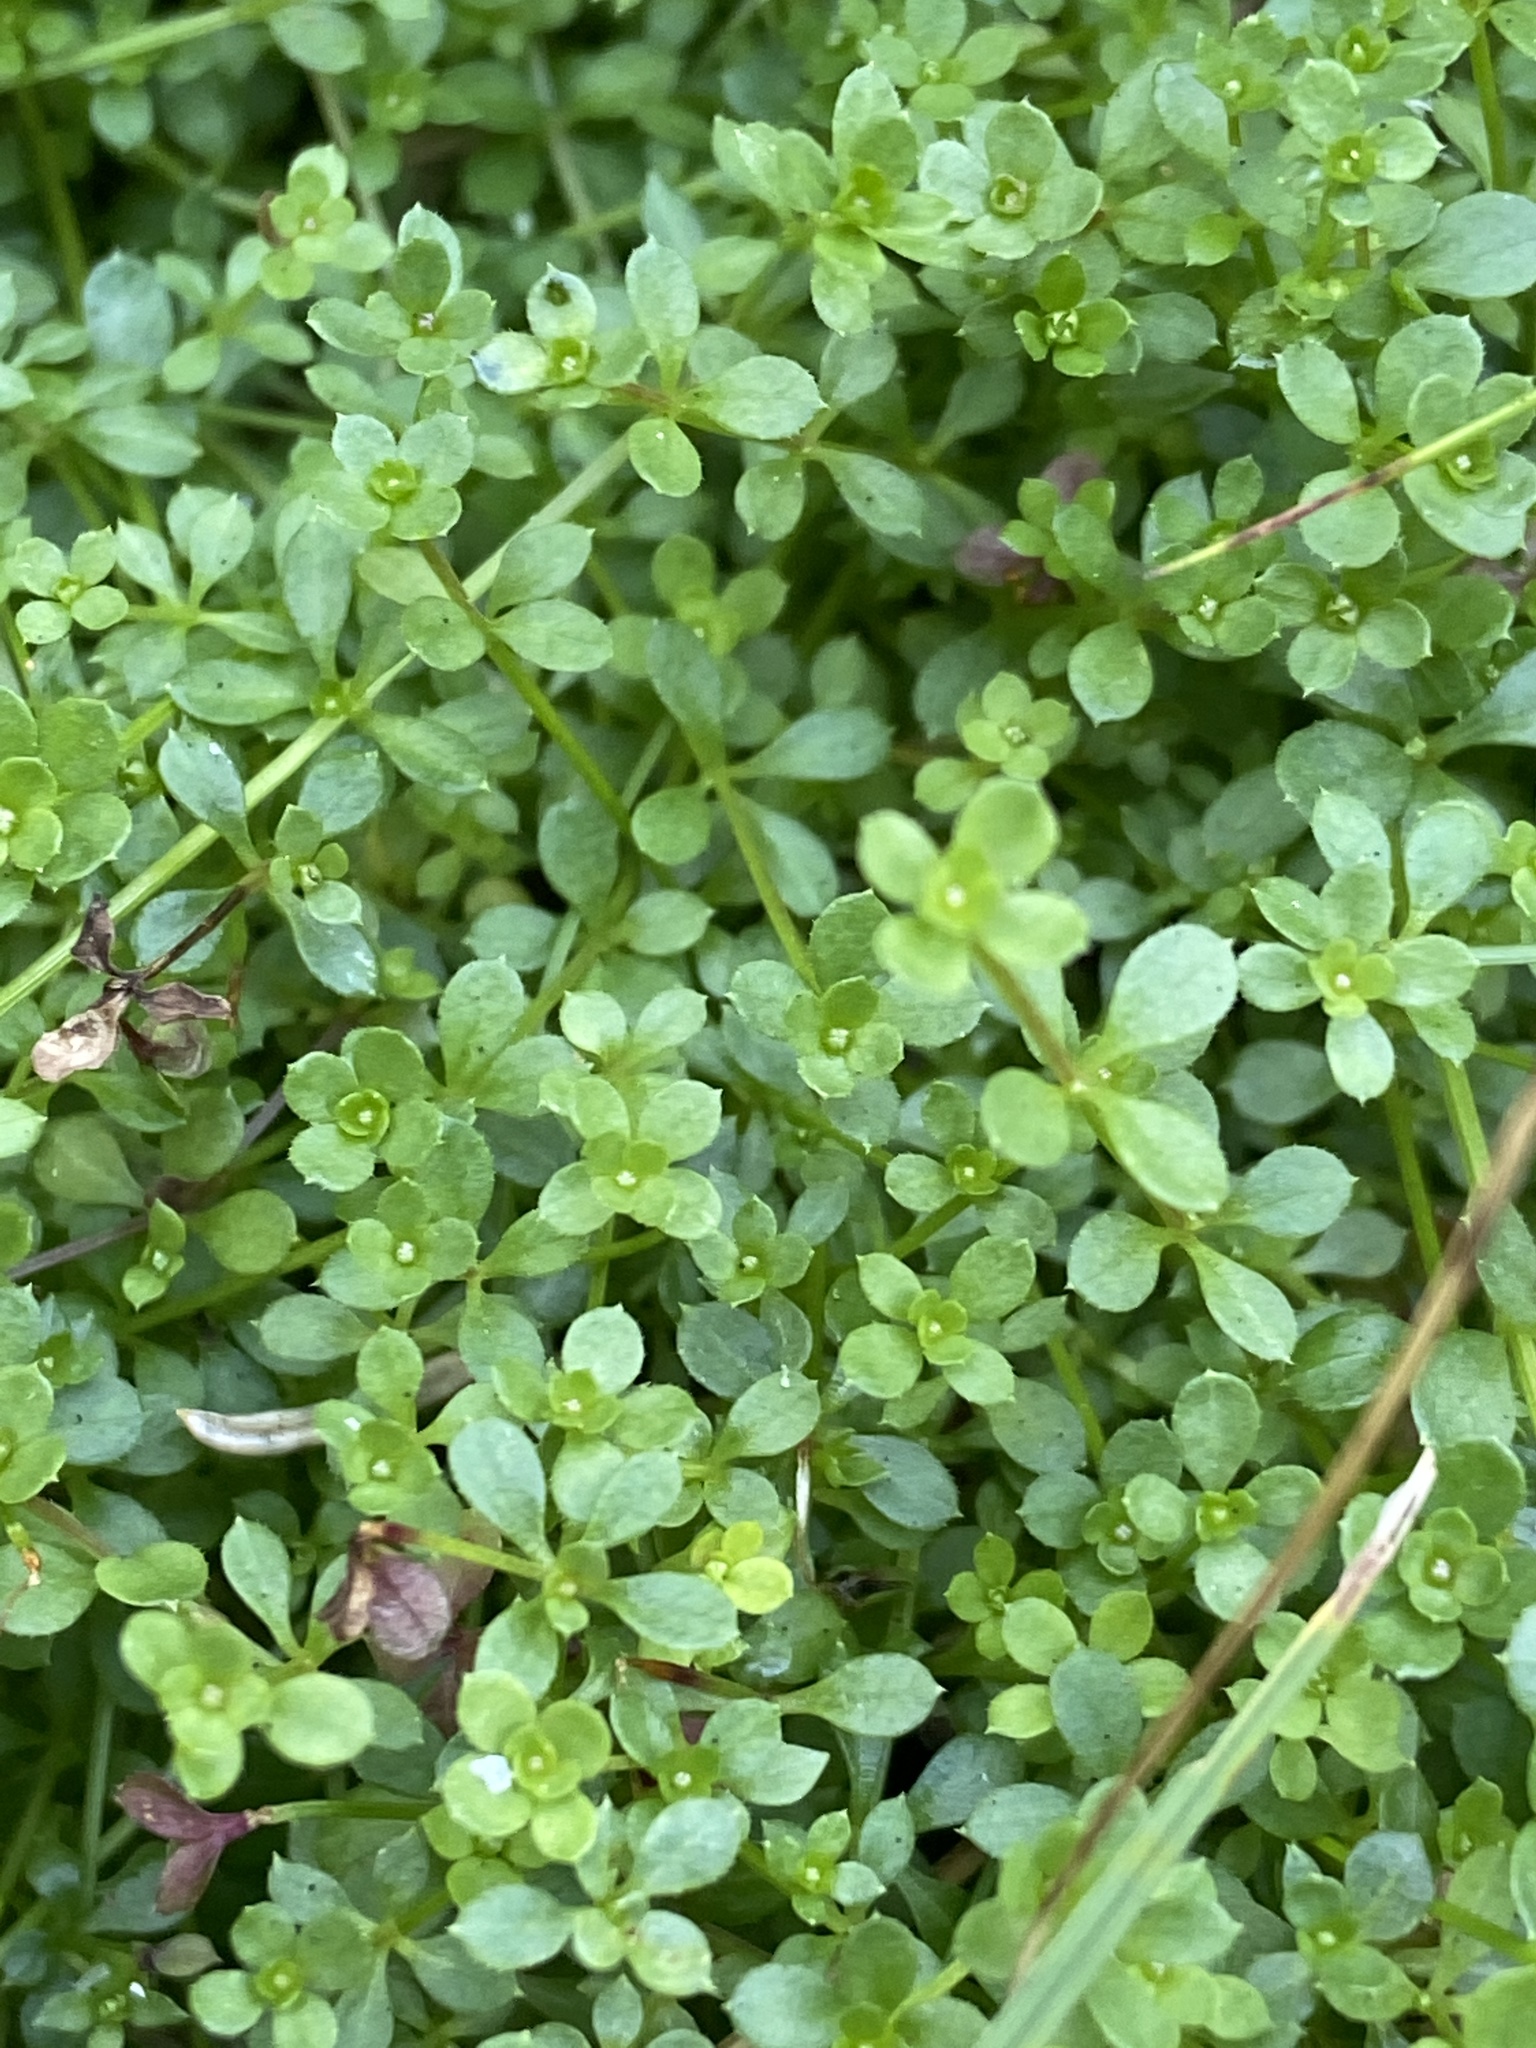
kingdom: Plantae
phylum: Tracheophyta
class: Magnoliopsida
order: Gentianales
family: Rubiaceae
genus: Galium
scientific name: Galium saxatile
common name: Heath bedstraw
